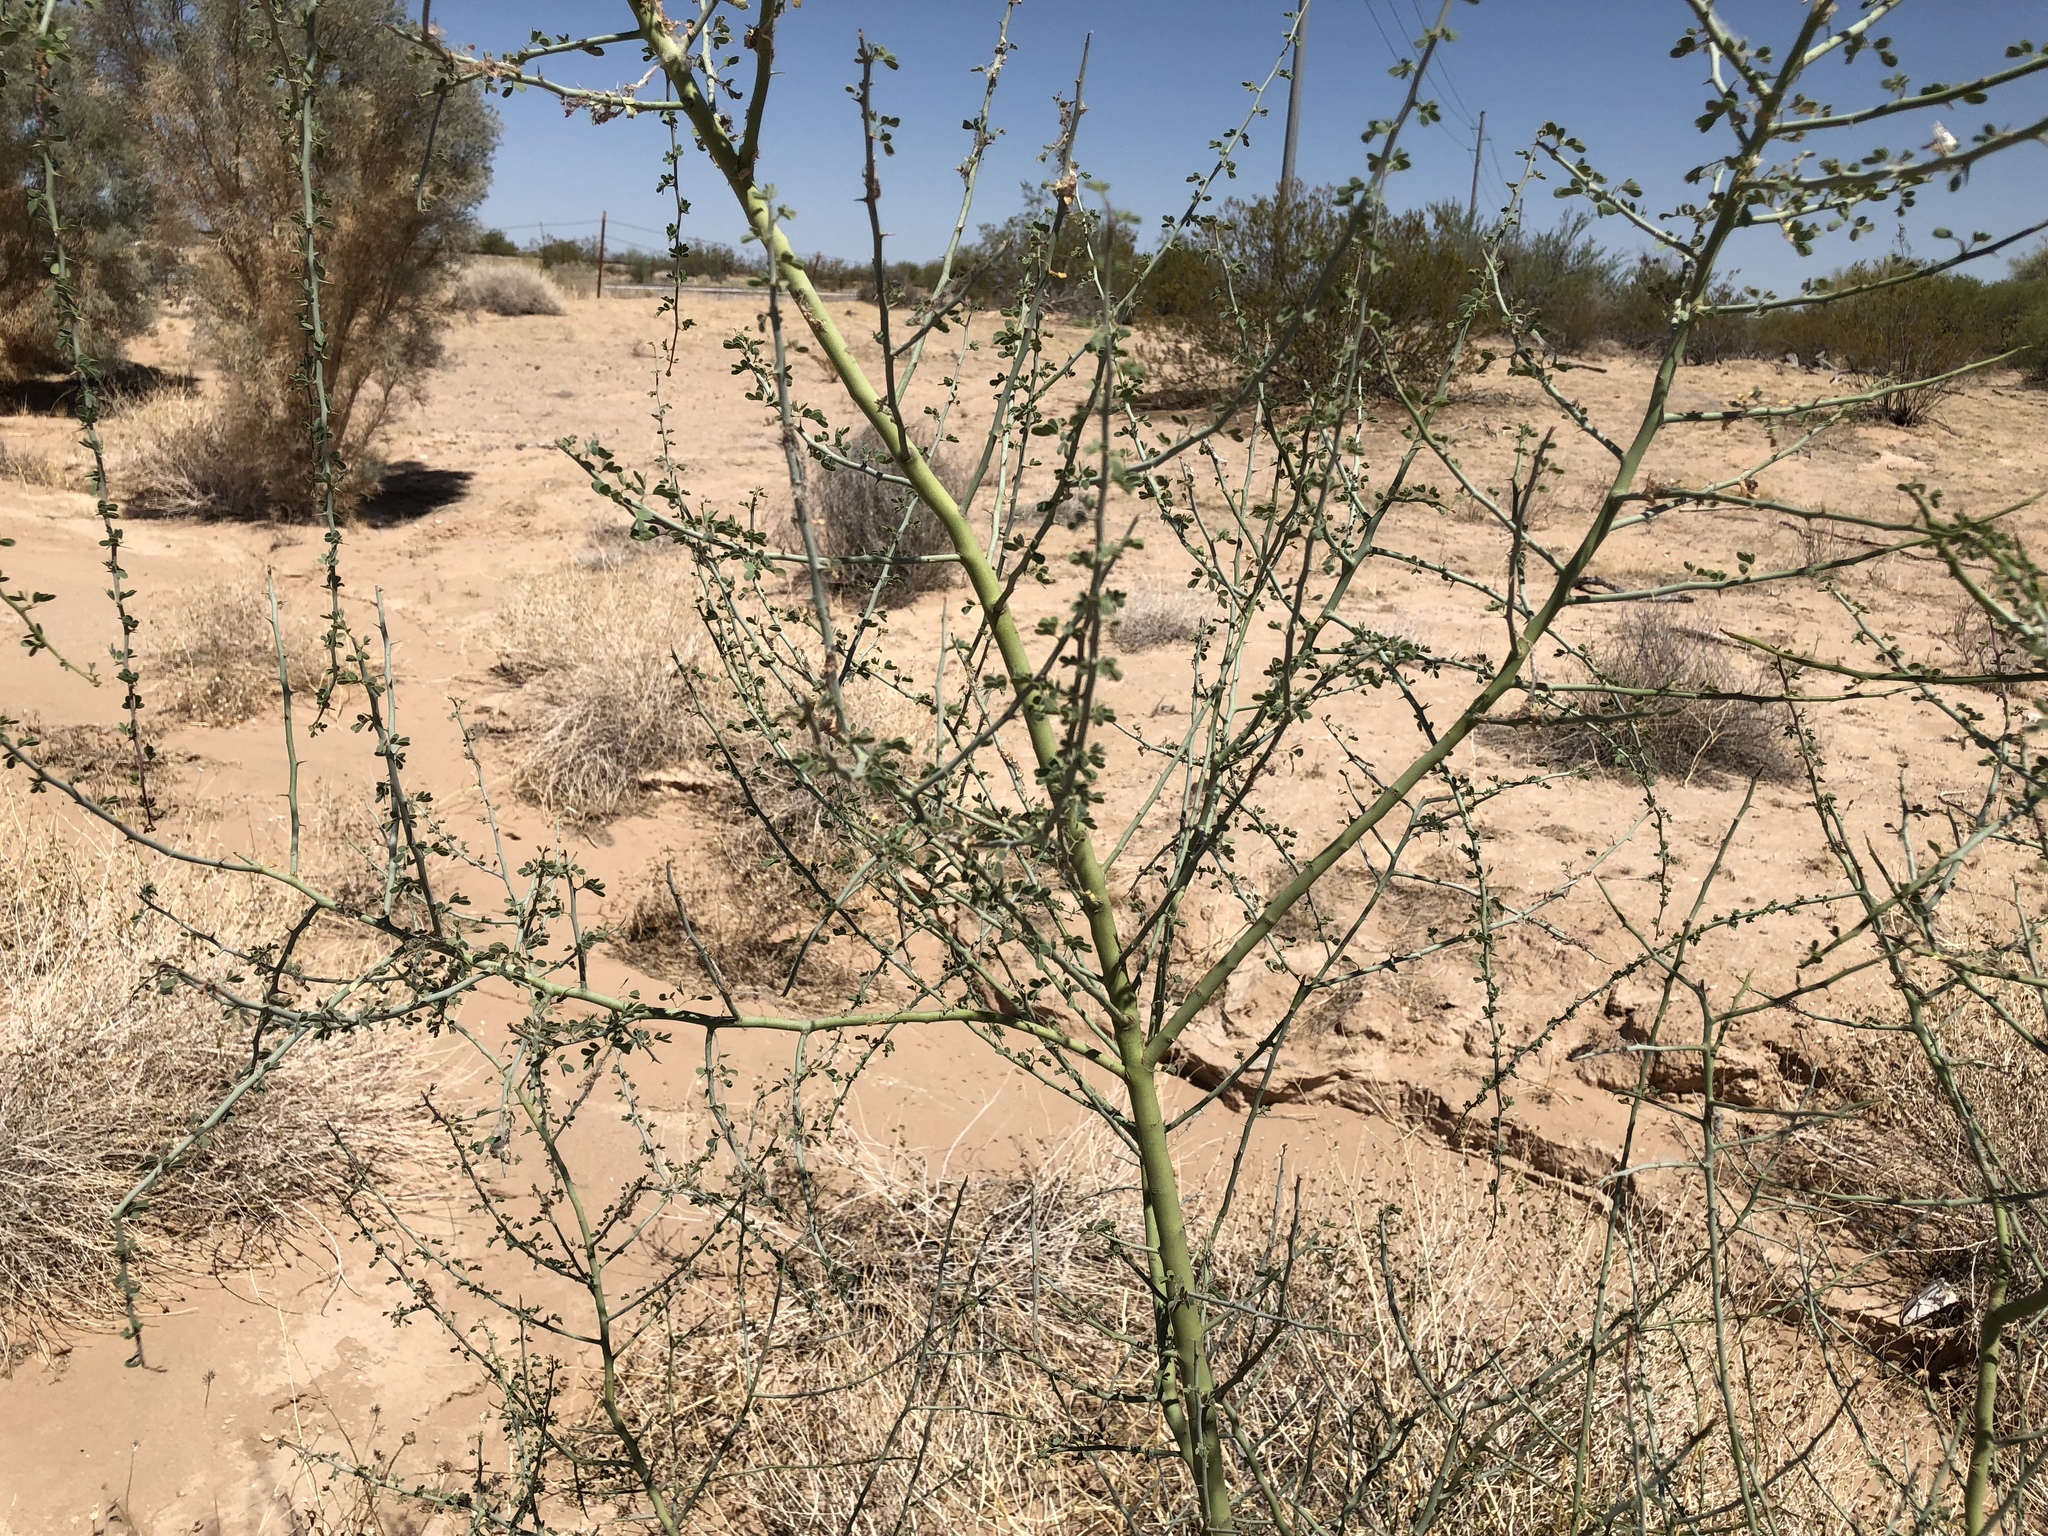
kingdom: Plantae
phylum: Tracheophyta
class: Magnoliopsida
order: Fabales
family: Fabaceae
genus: Parkinsonia
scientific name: Parkinsonia florida
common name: Blue paloverde
